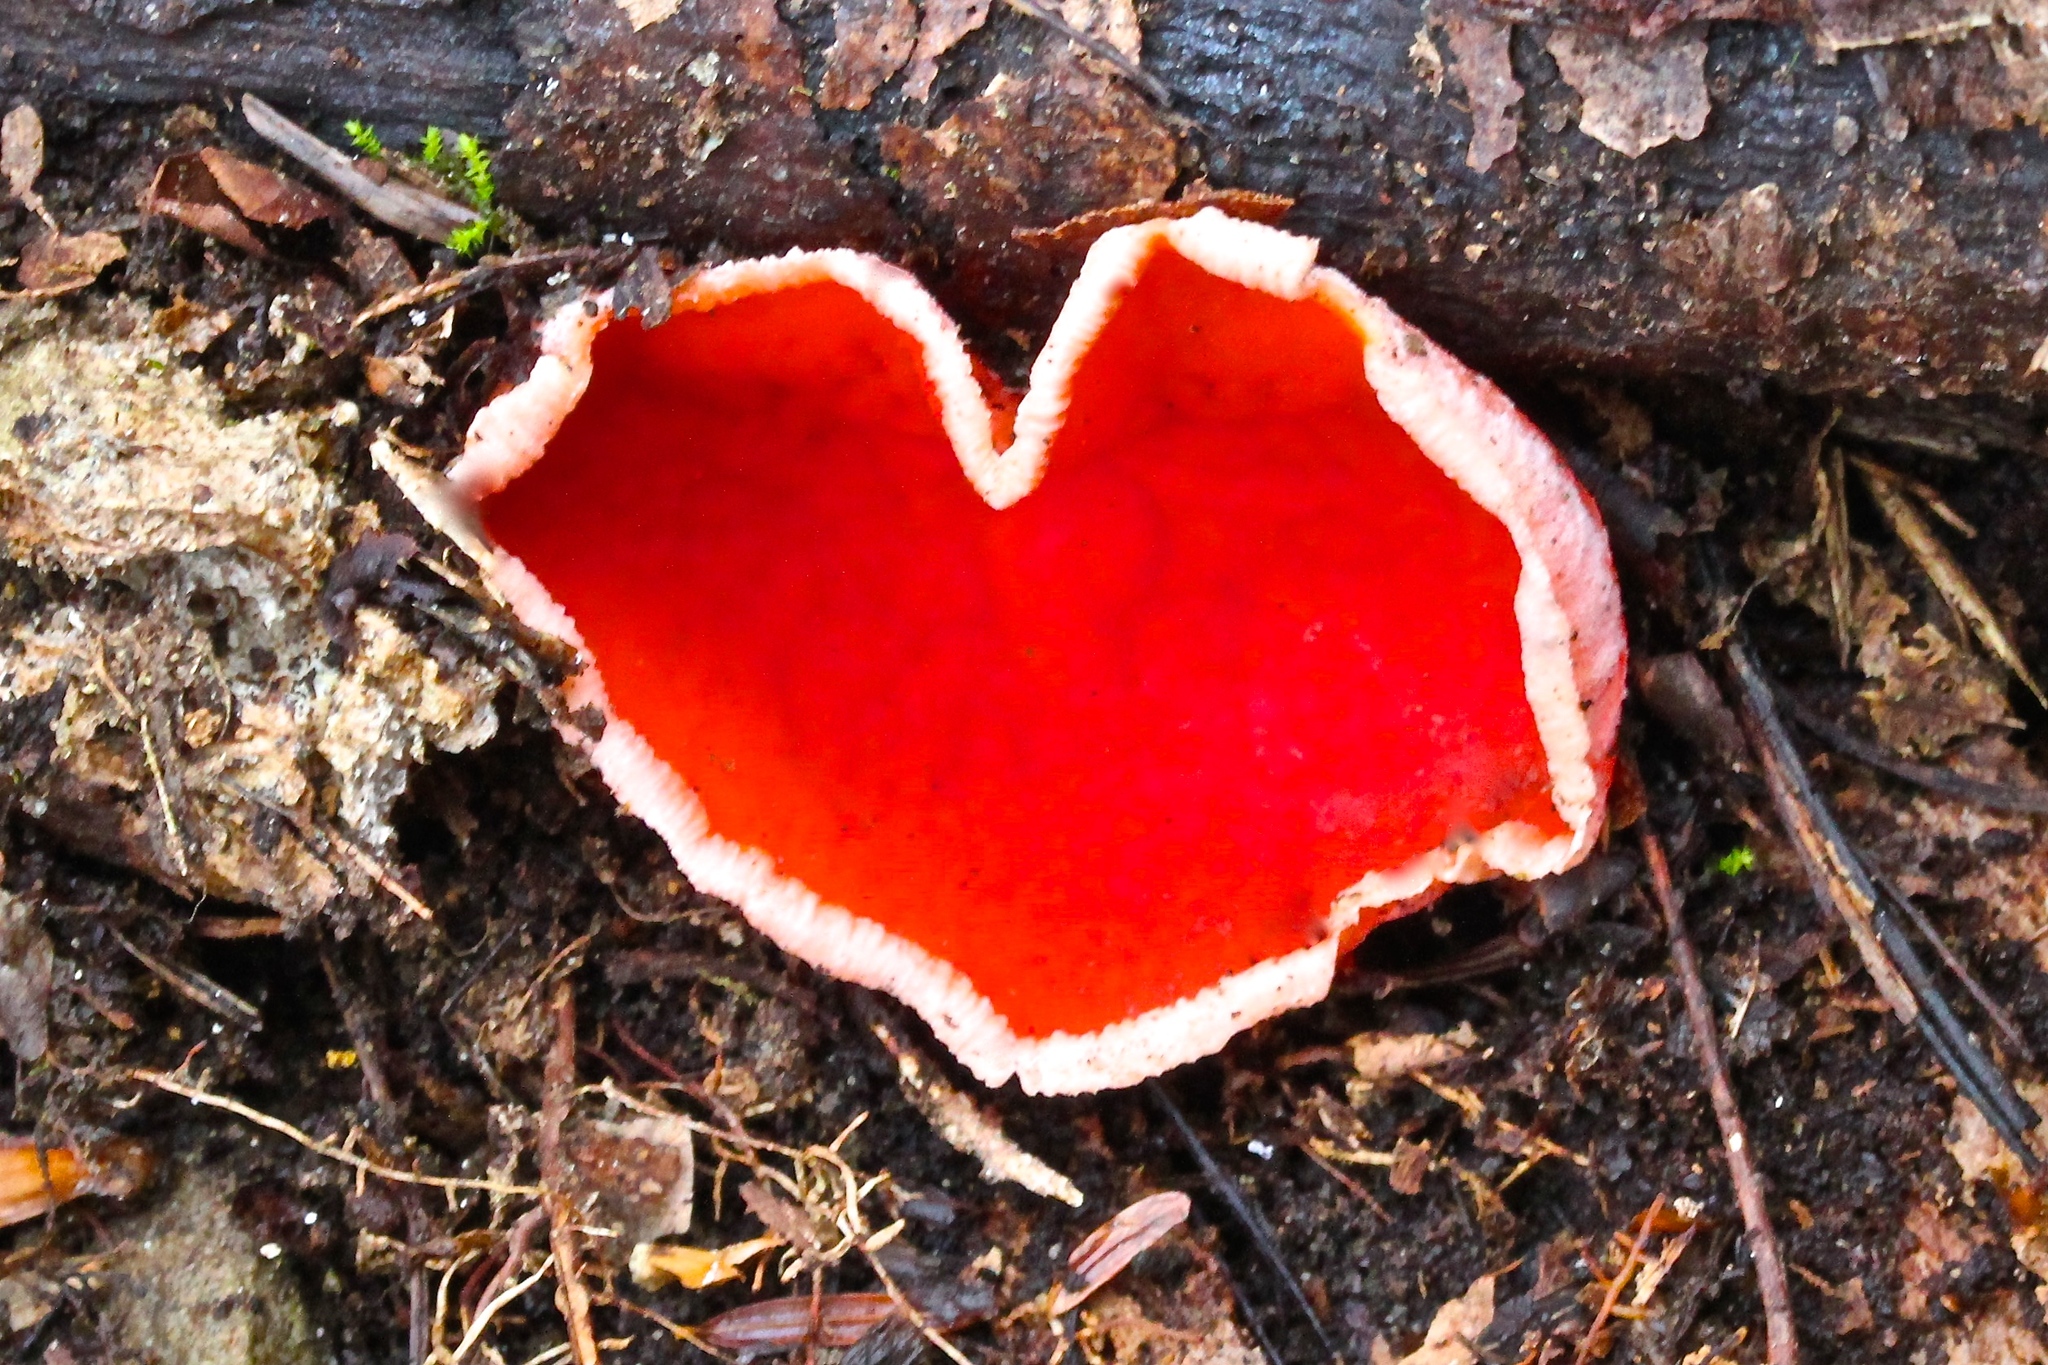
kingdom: Fungi
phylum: Ascomycota
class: Pezizomycetes
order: Pezizales
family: Sarcoscyphaceae
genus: Sarcoscypha
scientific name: Sarcoscypha austriaca
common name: Scarlet elfcup
